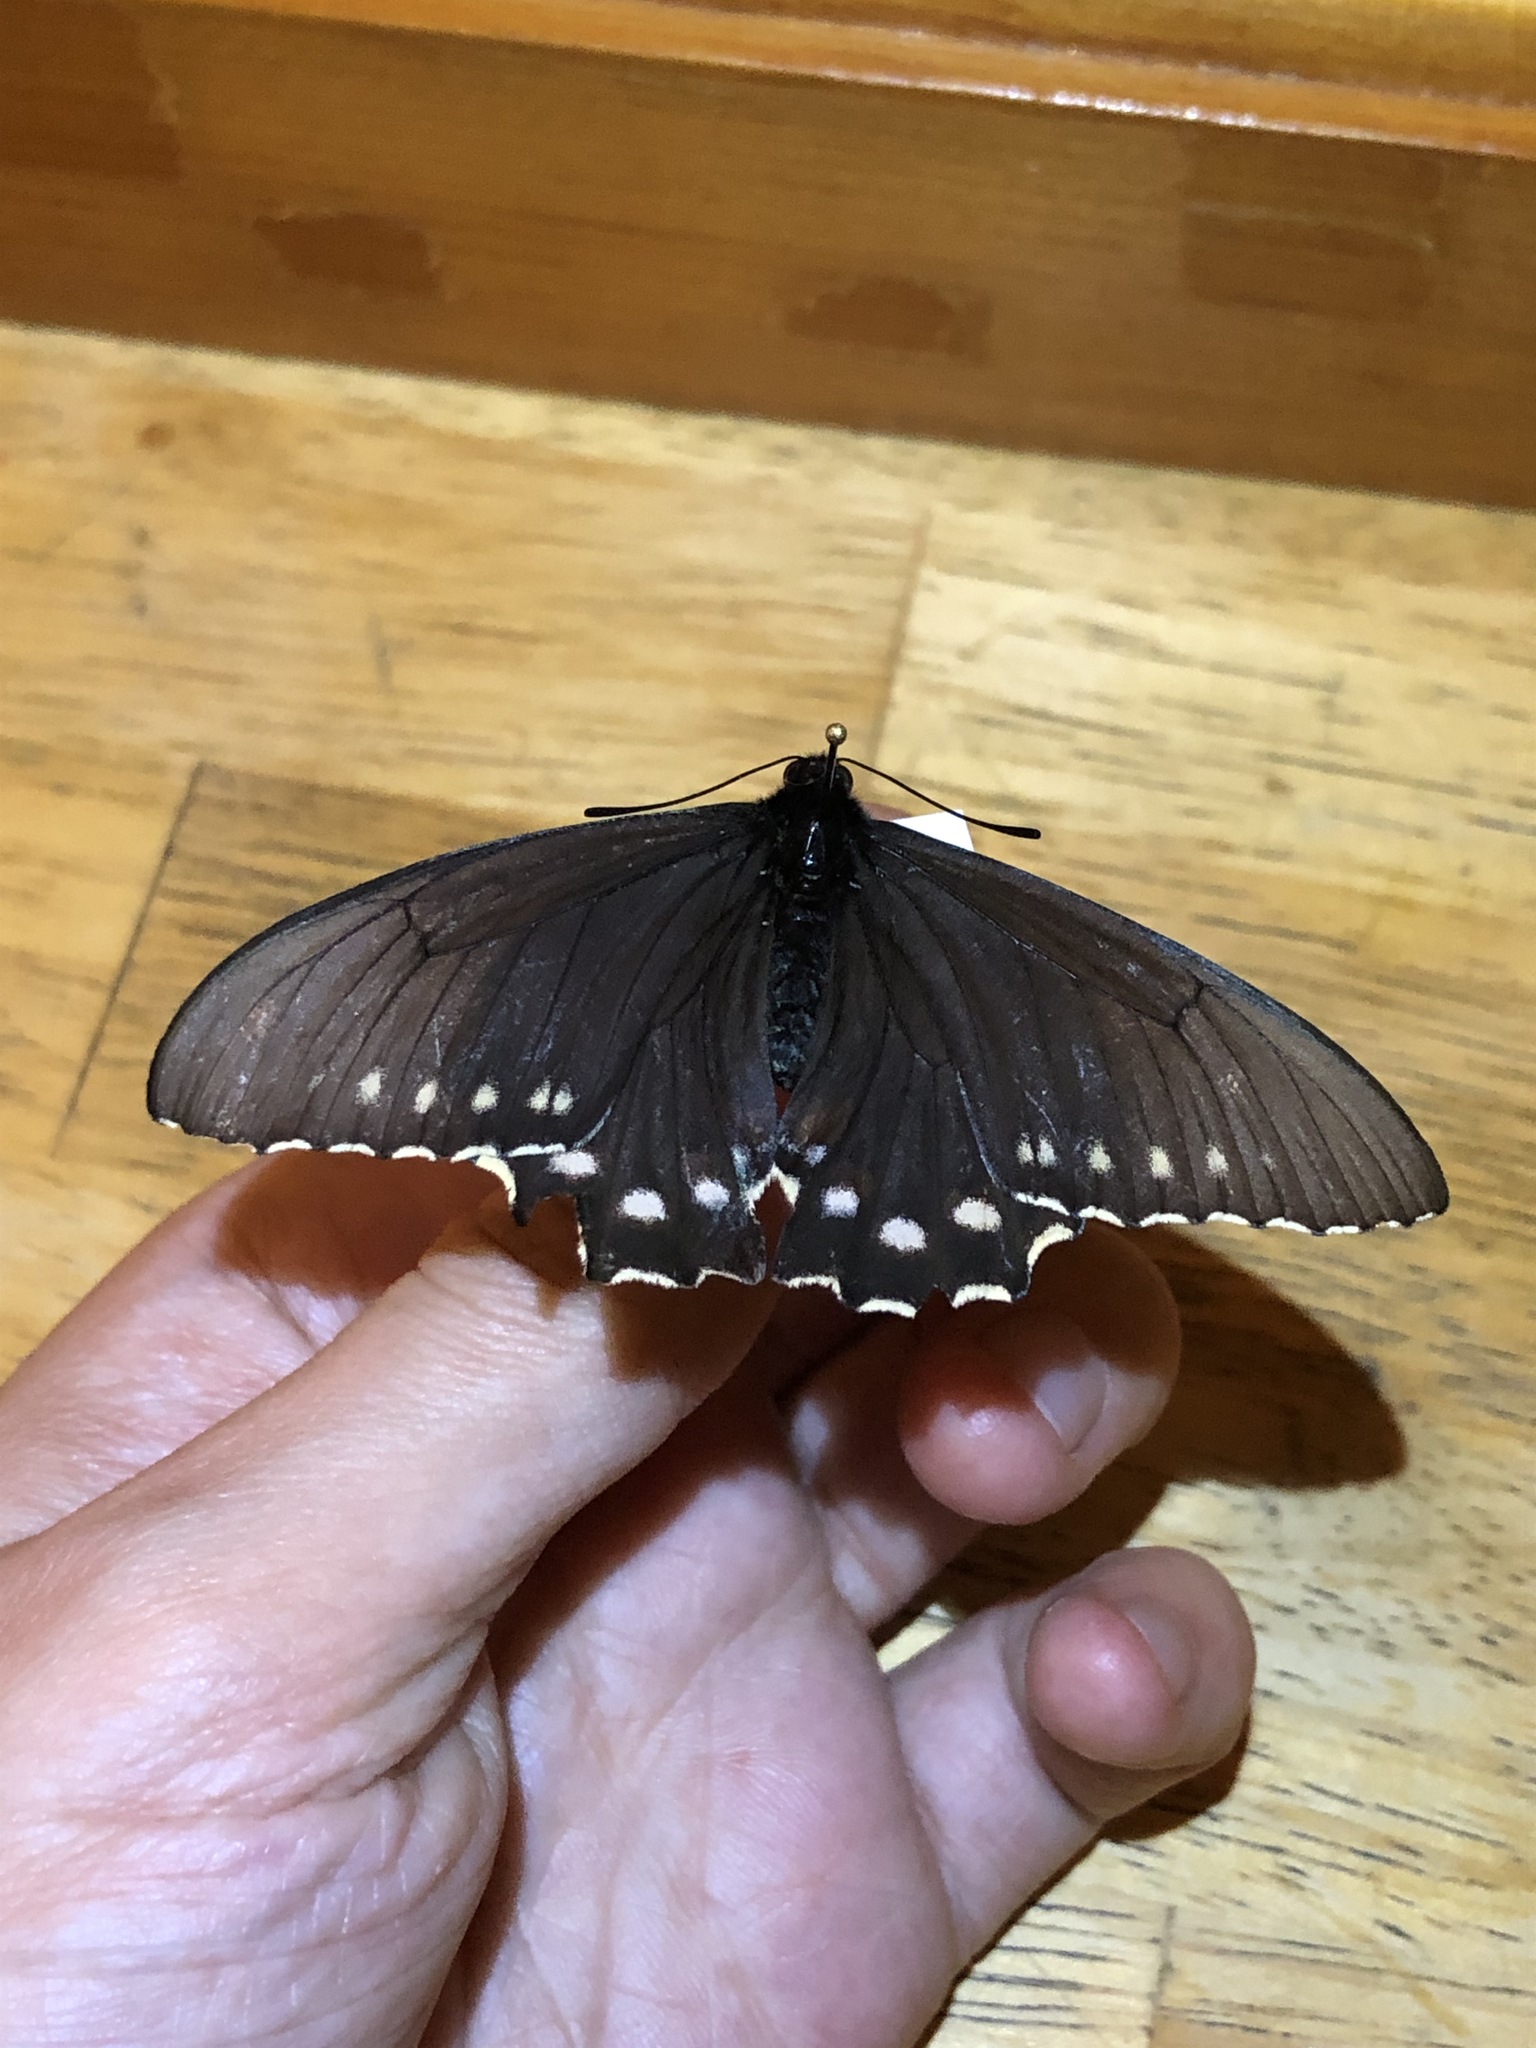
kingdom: Animalia
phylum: Arthropoda
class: Insecta
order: Lepidoptera
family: Papilionidae
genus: Battus
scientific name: Battus philenor
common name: Pipevine swallowtail
